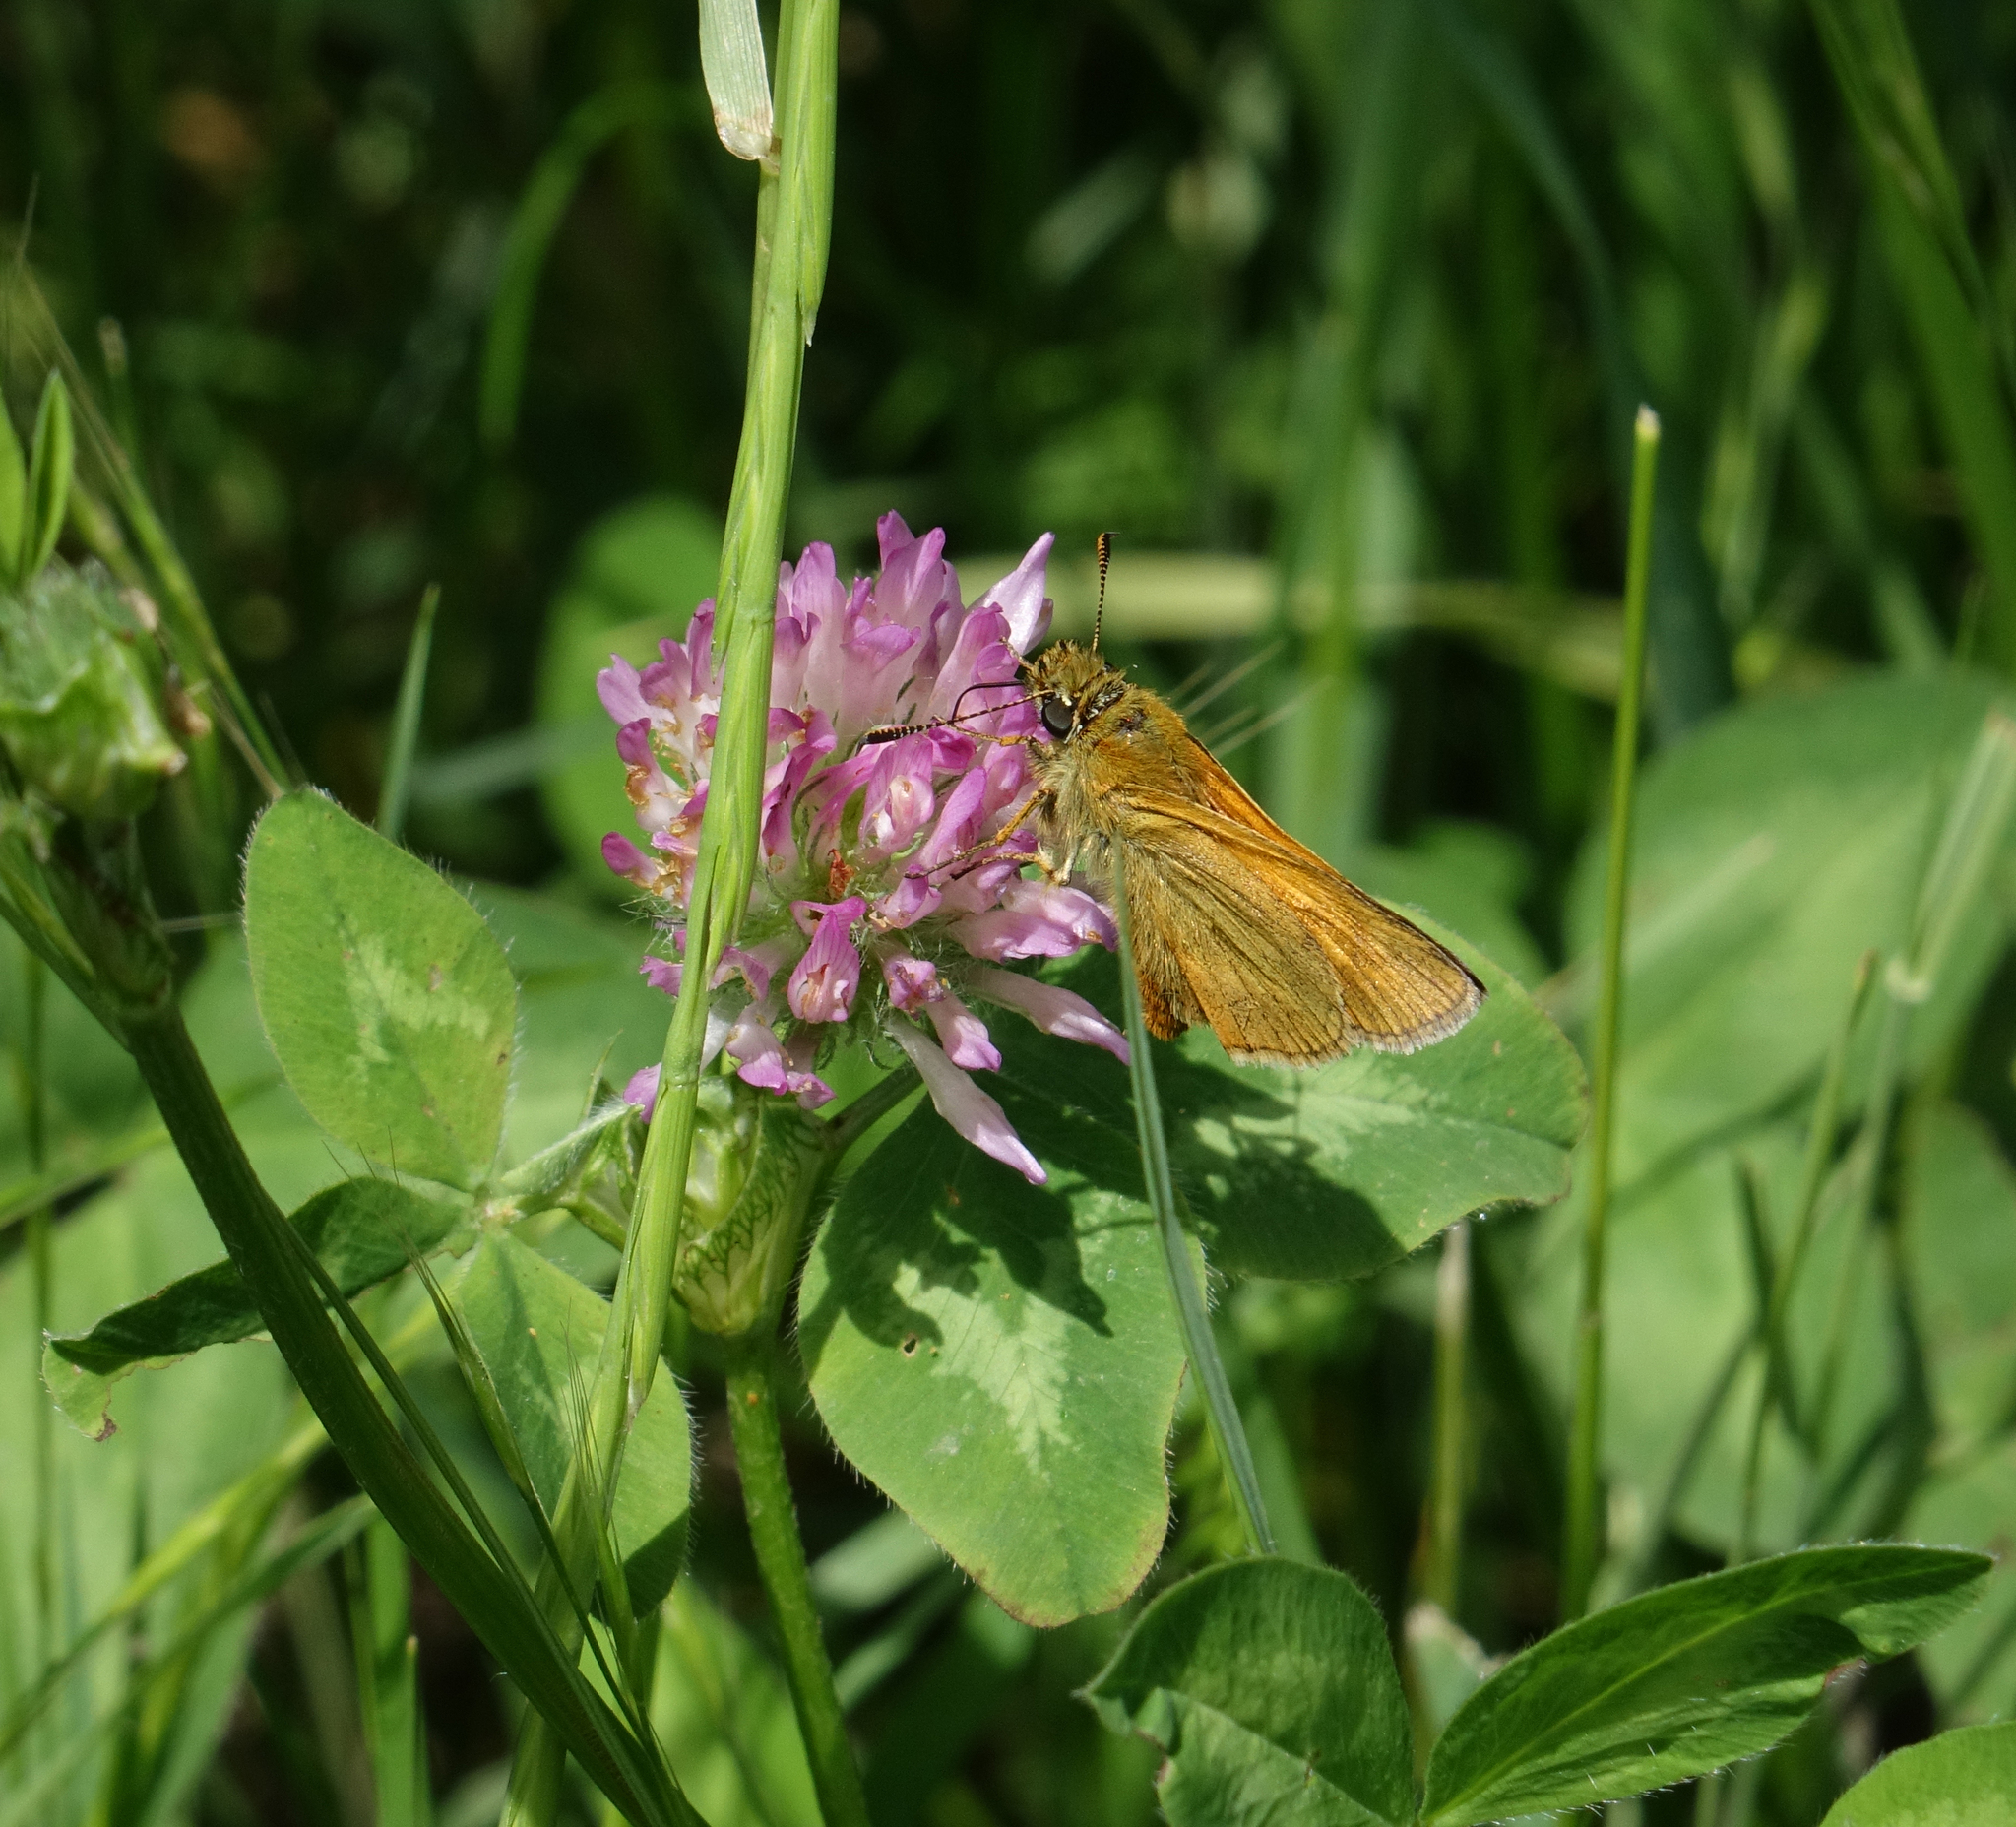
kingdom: Animalia
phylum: Arthropoda
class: Insecta
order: Lepidoptera
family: Hesperiidae
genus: Ochlodes
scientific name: Ochlodes venata
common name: Large skipper
